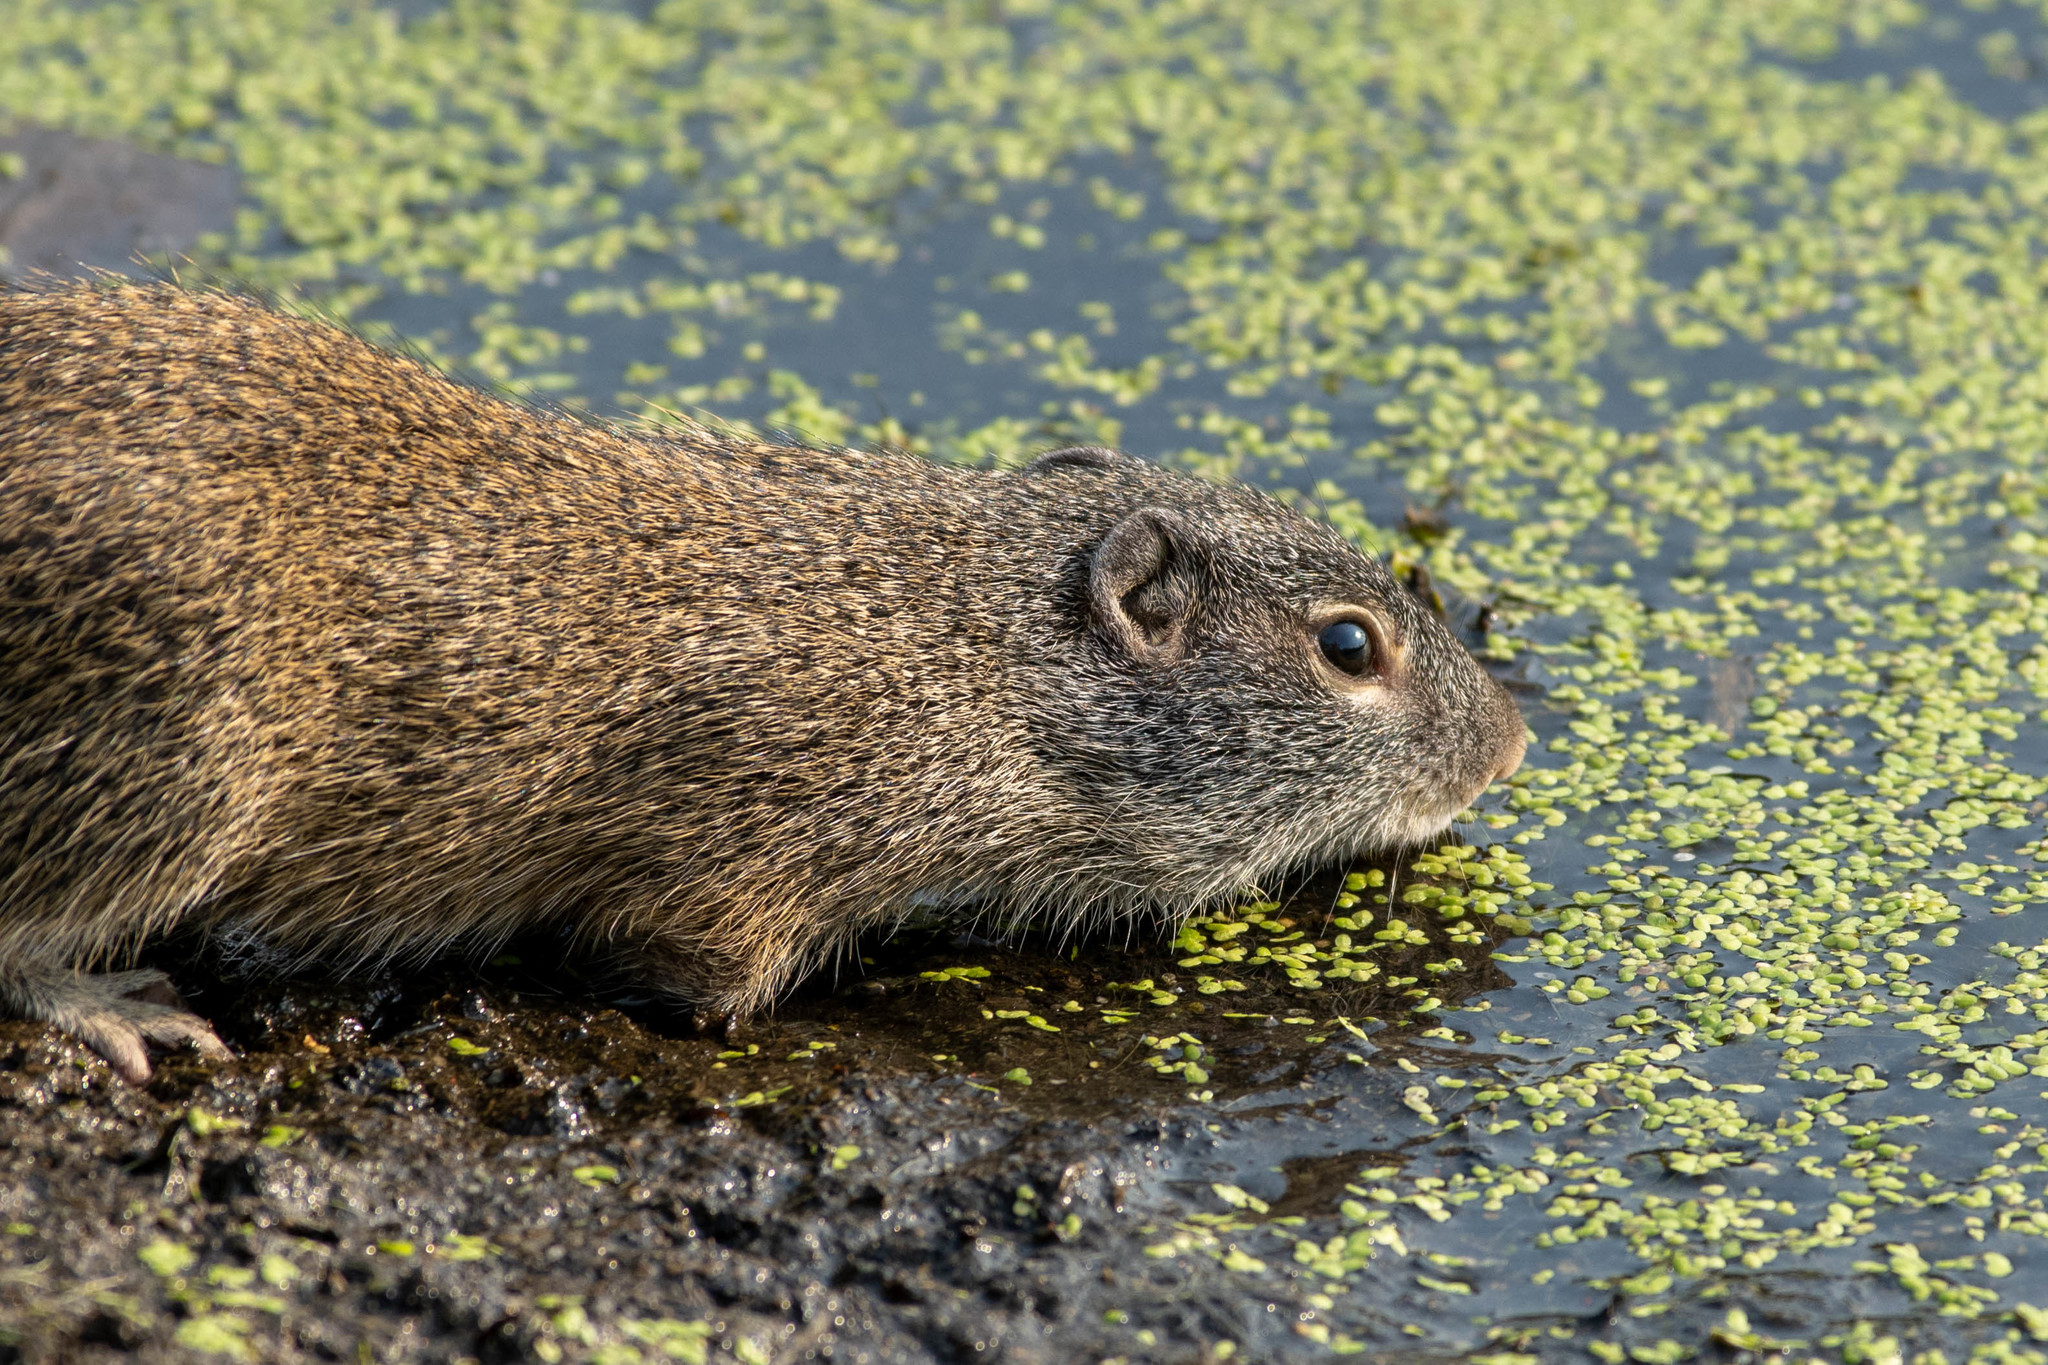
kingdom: Animalia
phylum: Chordata
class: Mammalia
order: Rodentia
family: Sciuridae
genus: Poliocitellus
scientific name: Poliocitellus franklinii
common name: Franklin's ground squirrel
